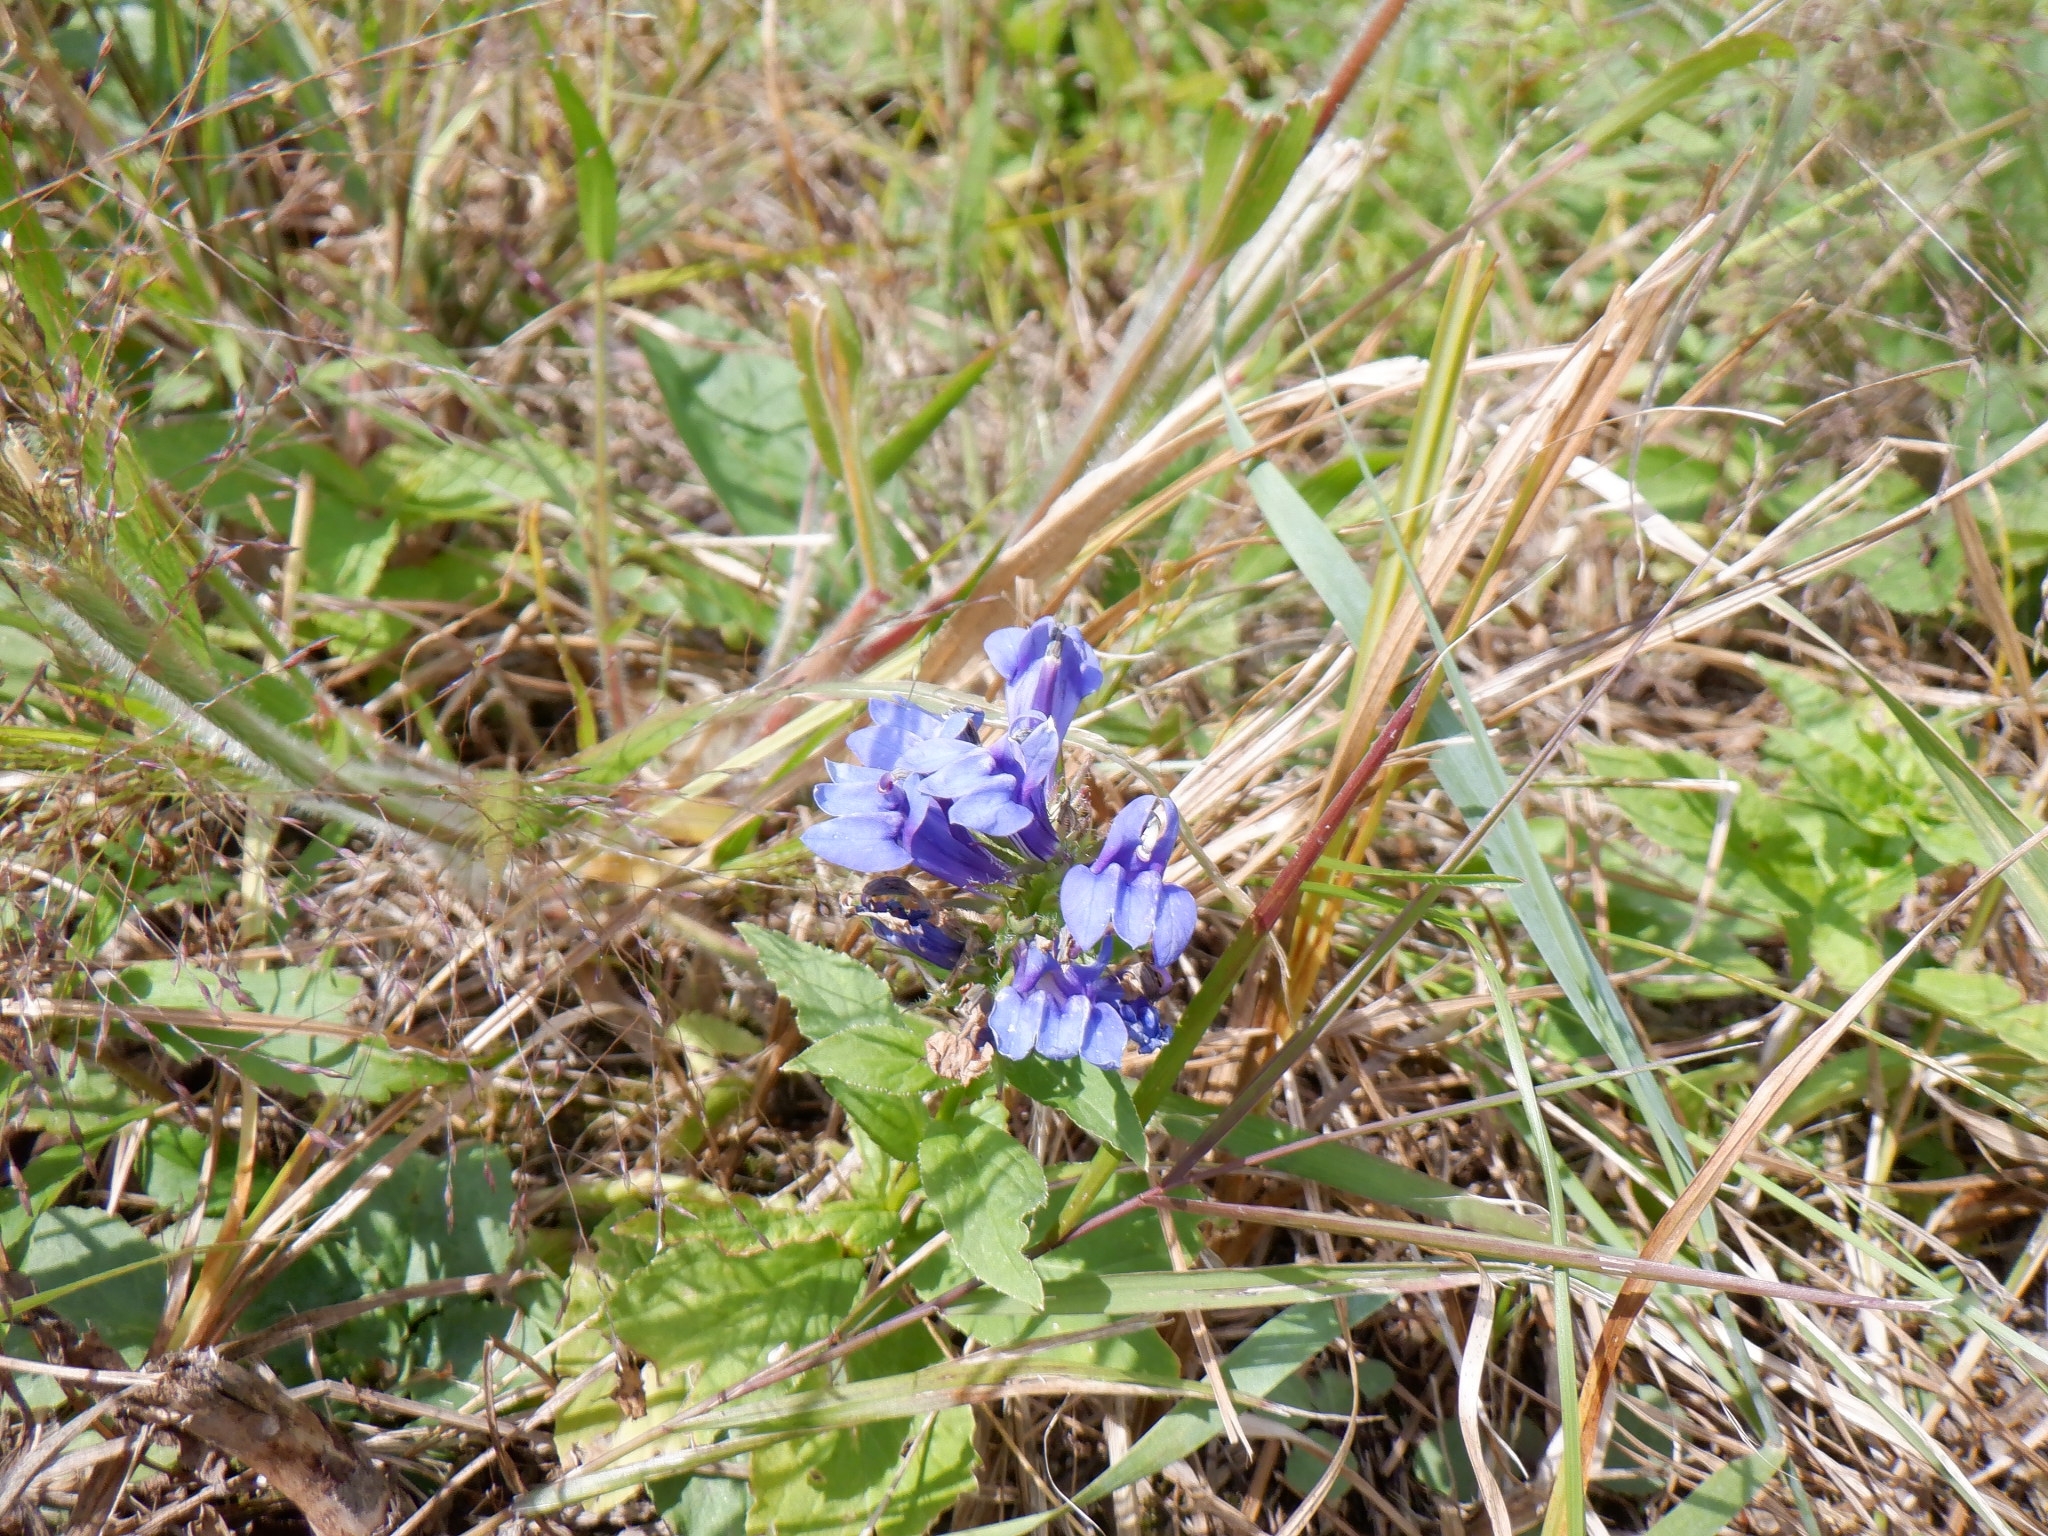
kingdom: Plantae
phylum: Tracheophyta
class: Magnoliopsida
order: Asterales
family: Campanulaceae
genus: Lobelia
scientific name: Lobelia siphilitica
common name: Great lobelia
